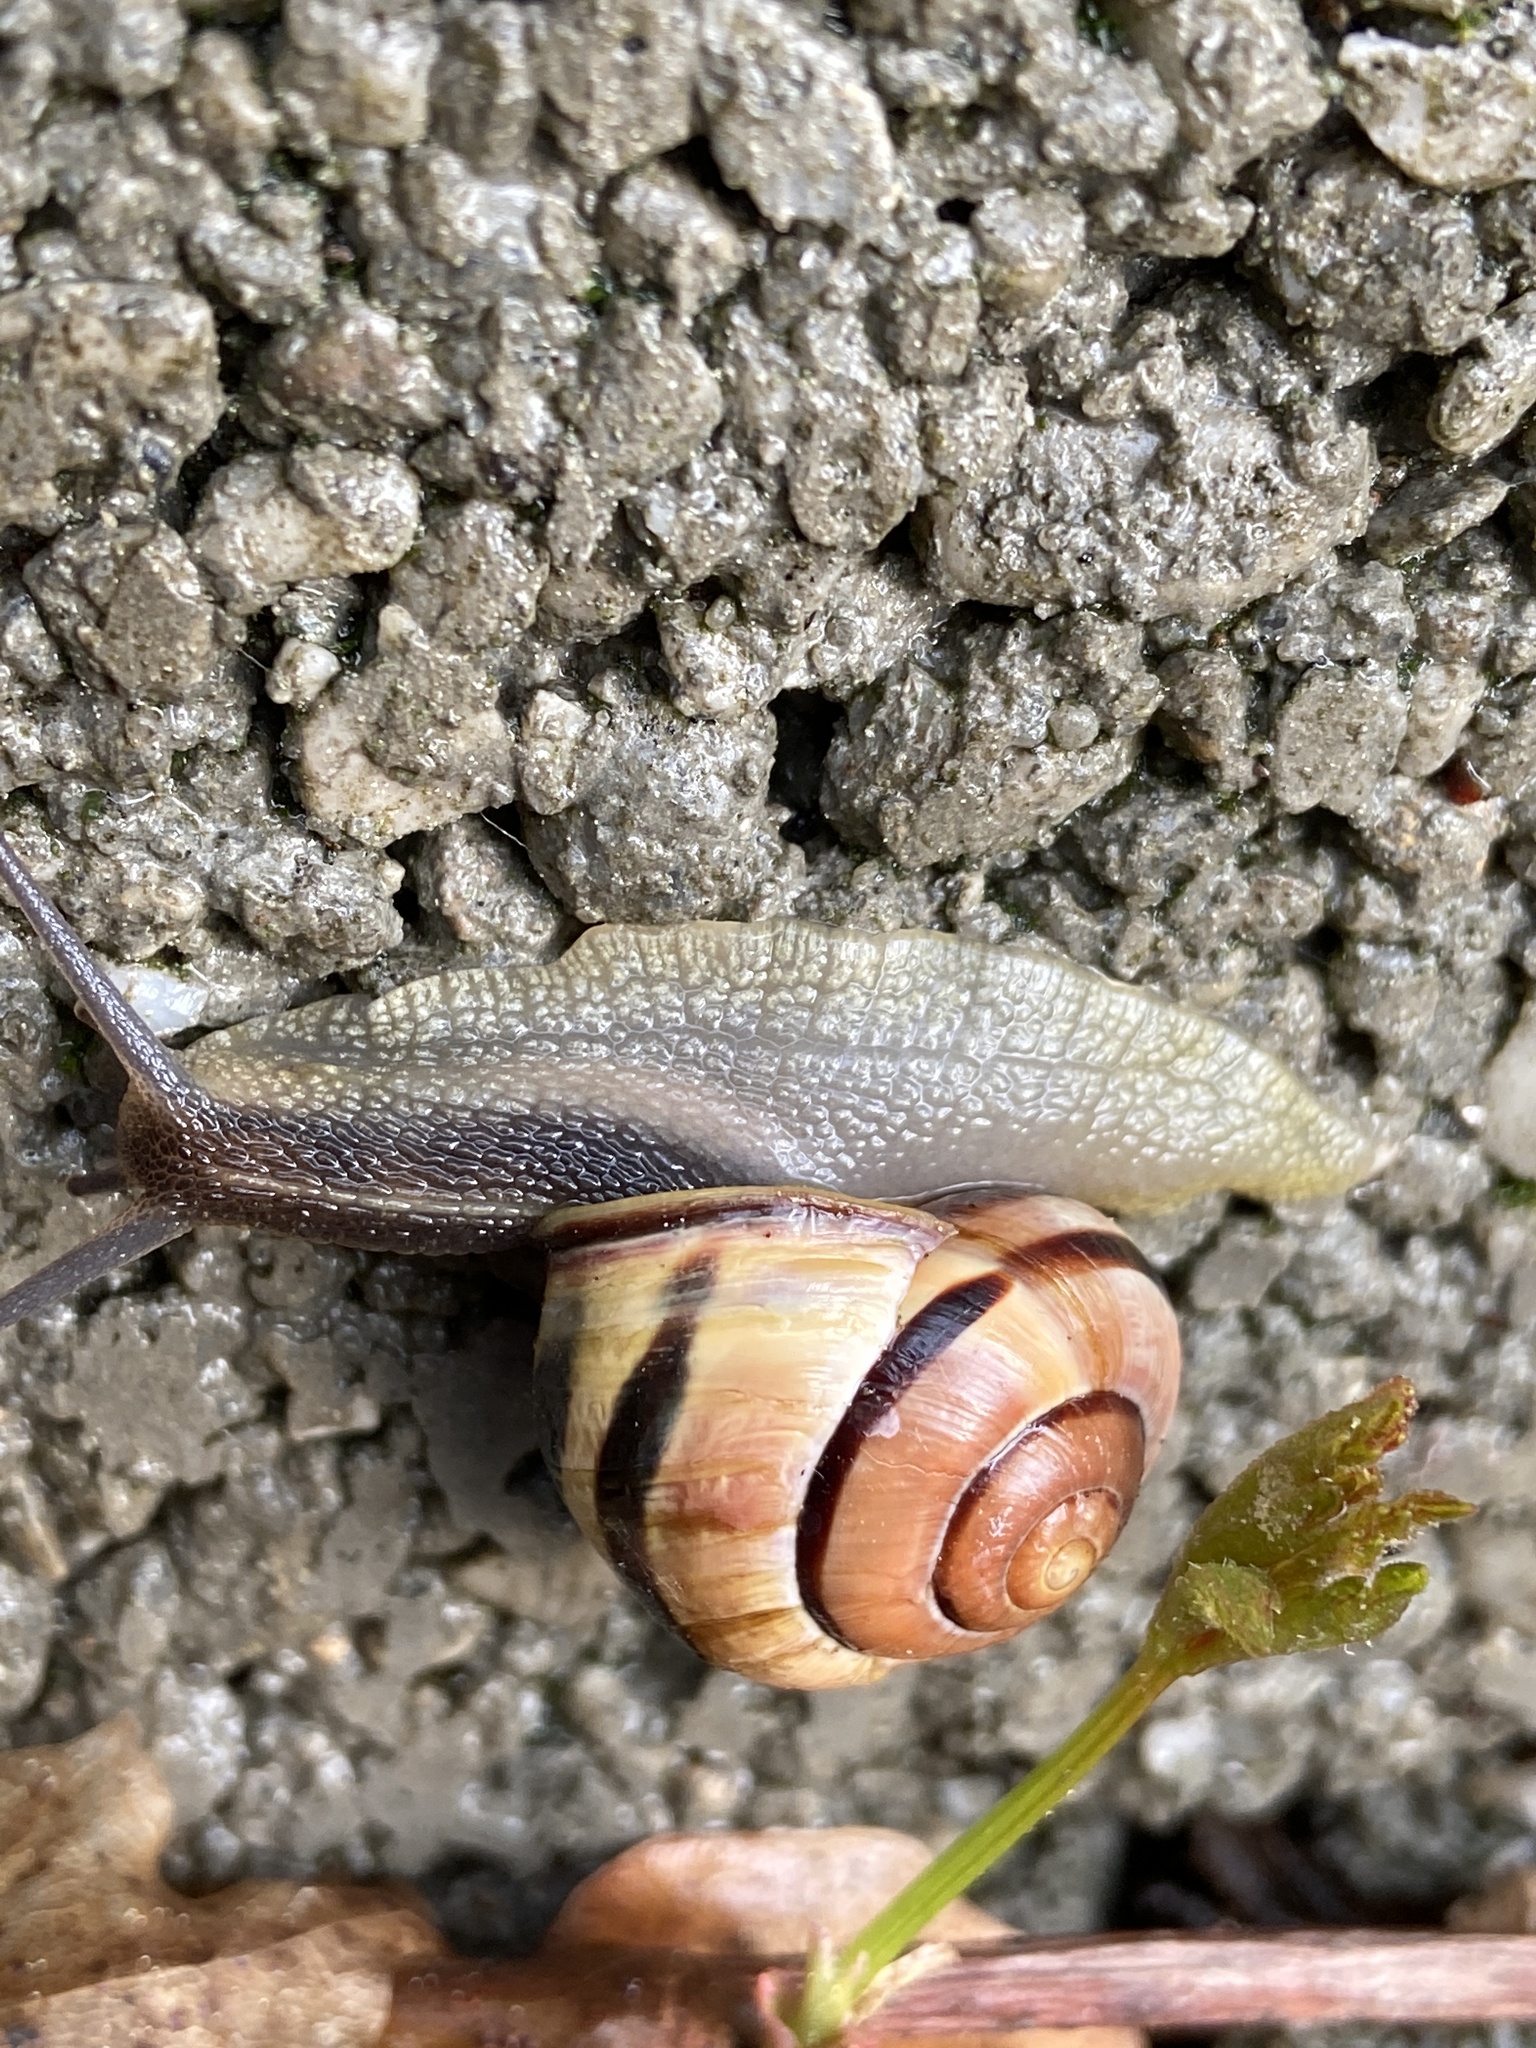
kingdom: Animalia
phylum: Mollusca
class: Gastropoda
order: Stylommatophora
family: Helicidae
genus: Cepaea
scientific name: Cepaea nemoralis
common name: Grovesnail
